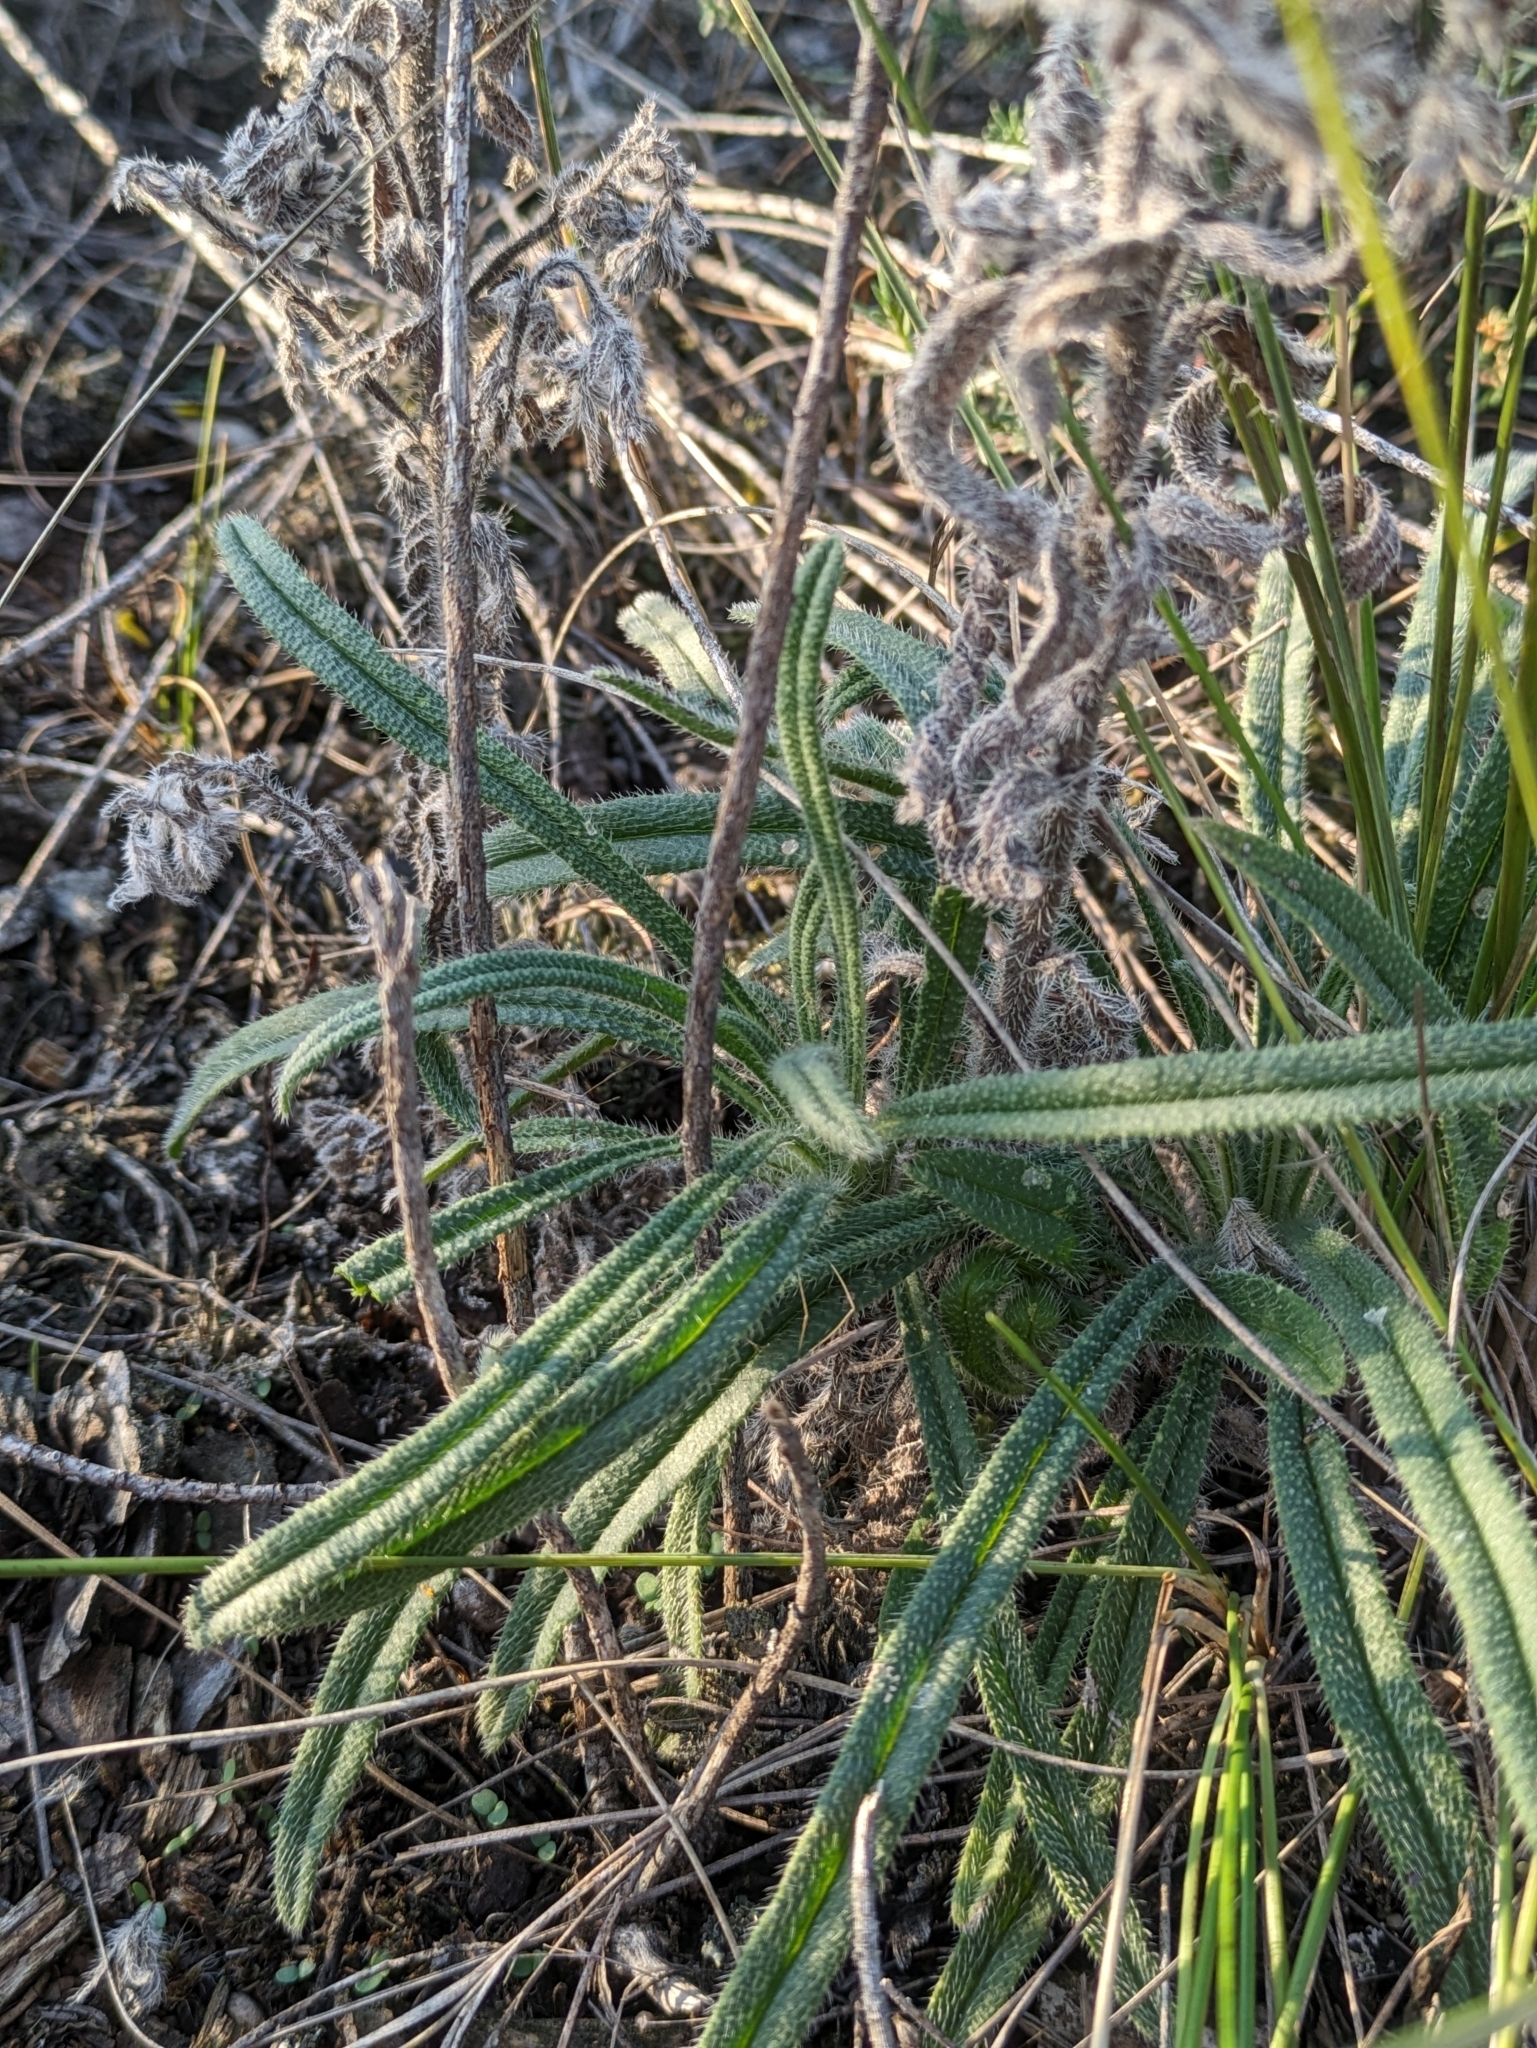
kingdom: Plantae
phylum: Tracheophyta
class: Magnoliopsida
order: Boraginales
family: Boraginaceae
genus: Onosma
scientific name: Onosma arenaria
